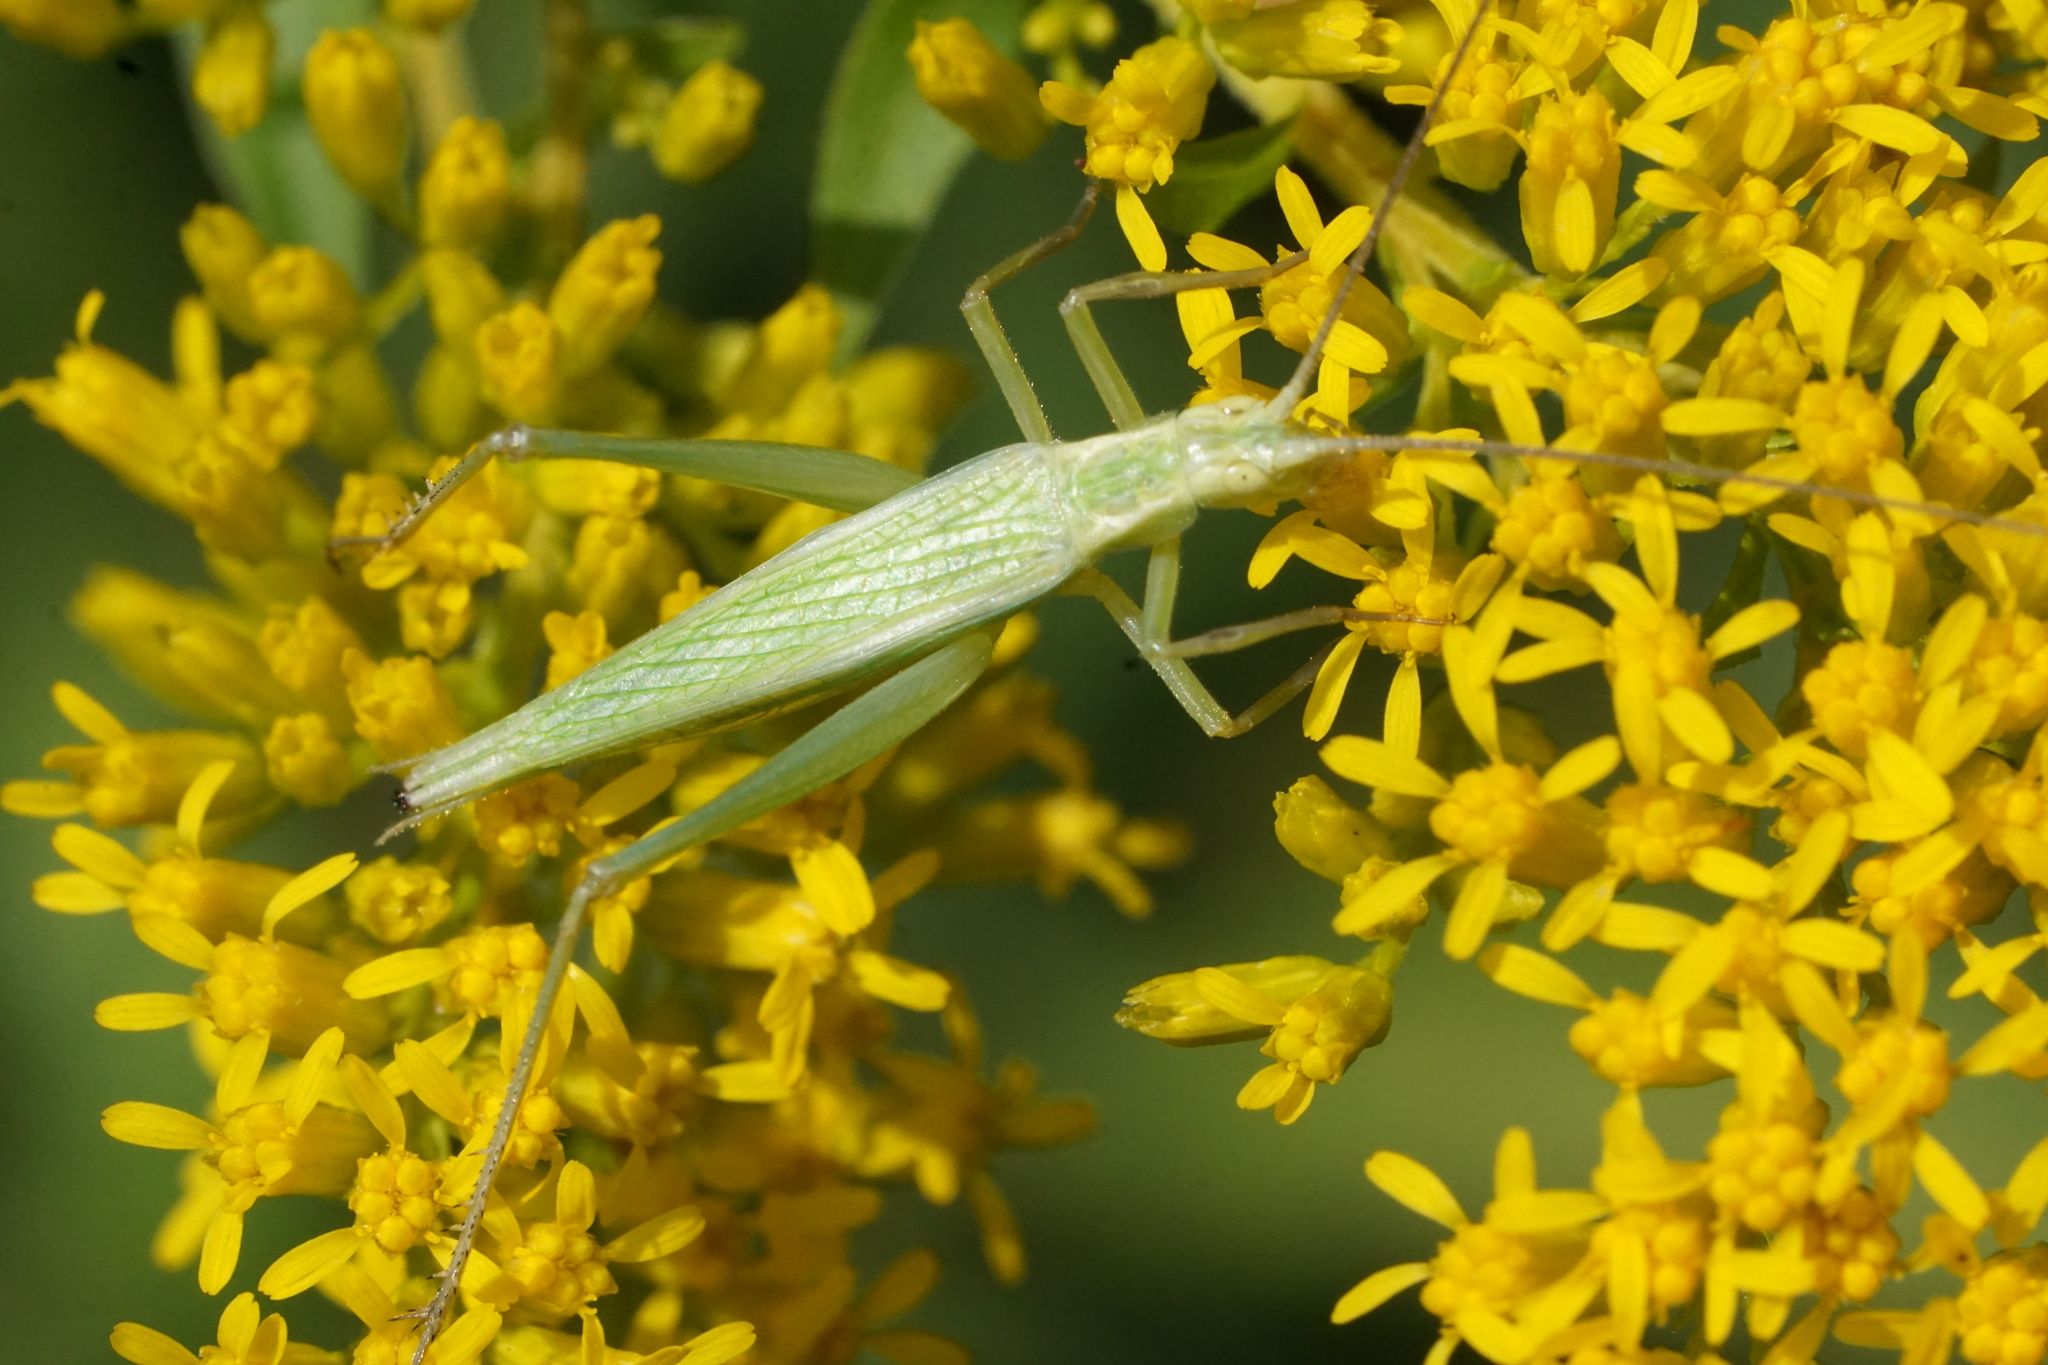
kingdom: Animalia
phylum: Arthropoda
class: Insecta
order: Orthoptera
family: Gryllidae
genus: Oecanthus
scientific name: Oecanthus quadripunctatus
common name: Four-spotted tree cricket
